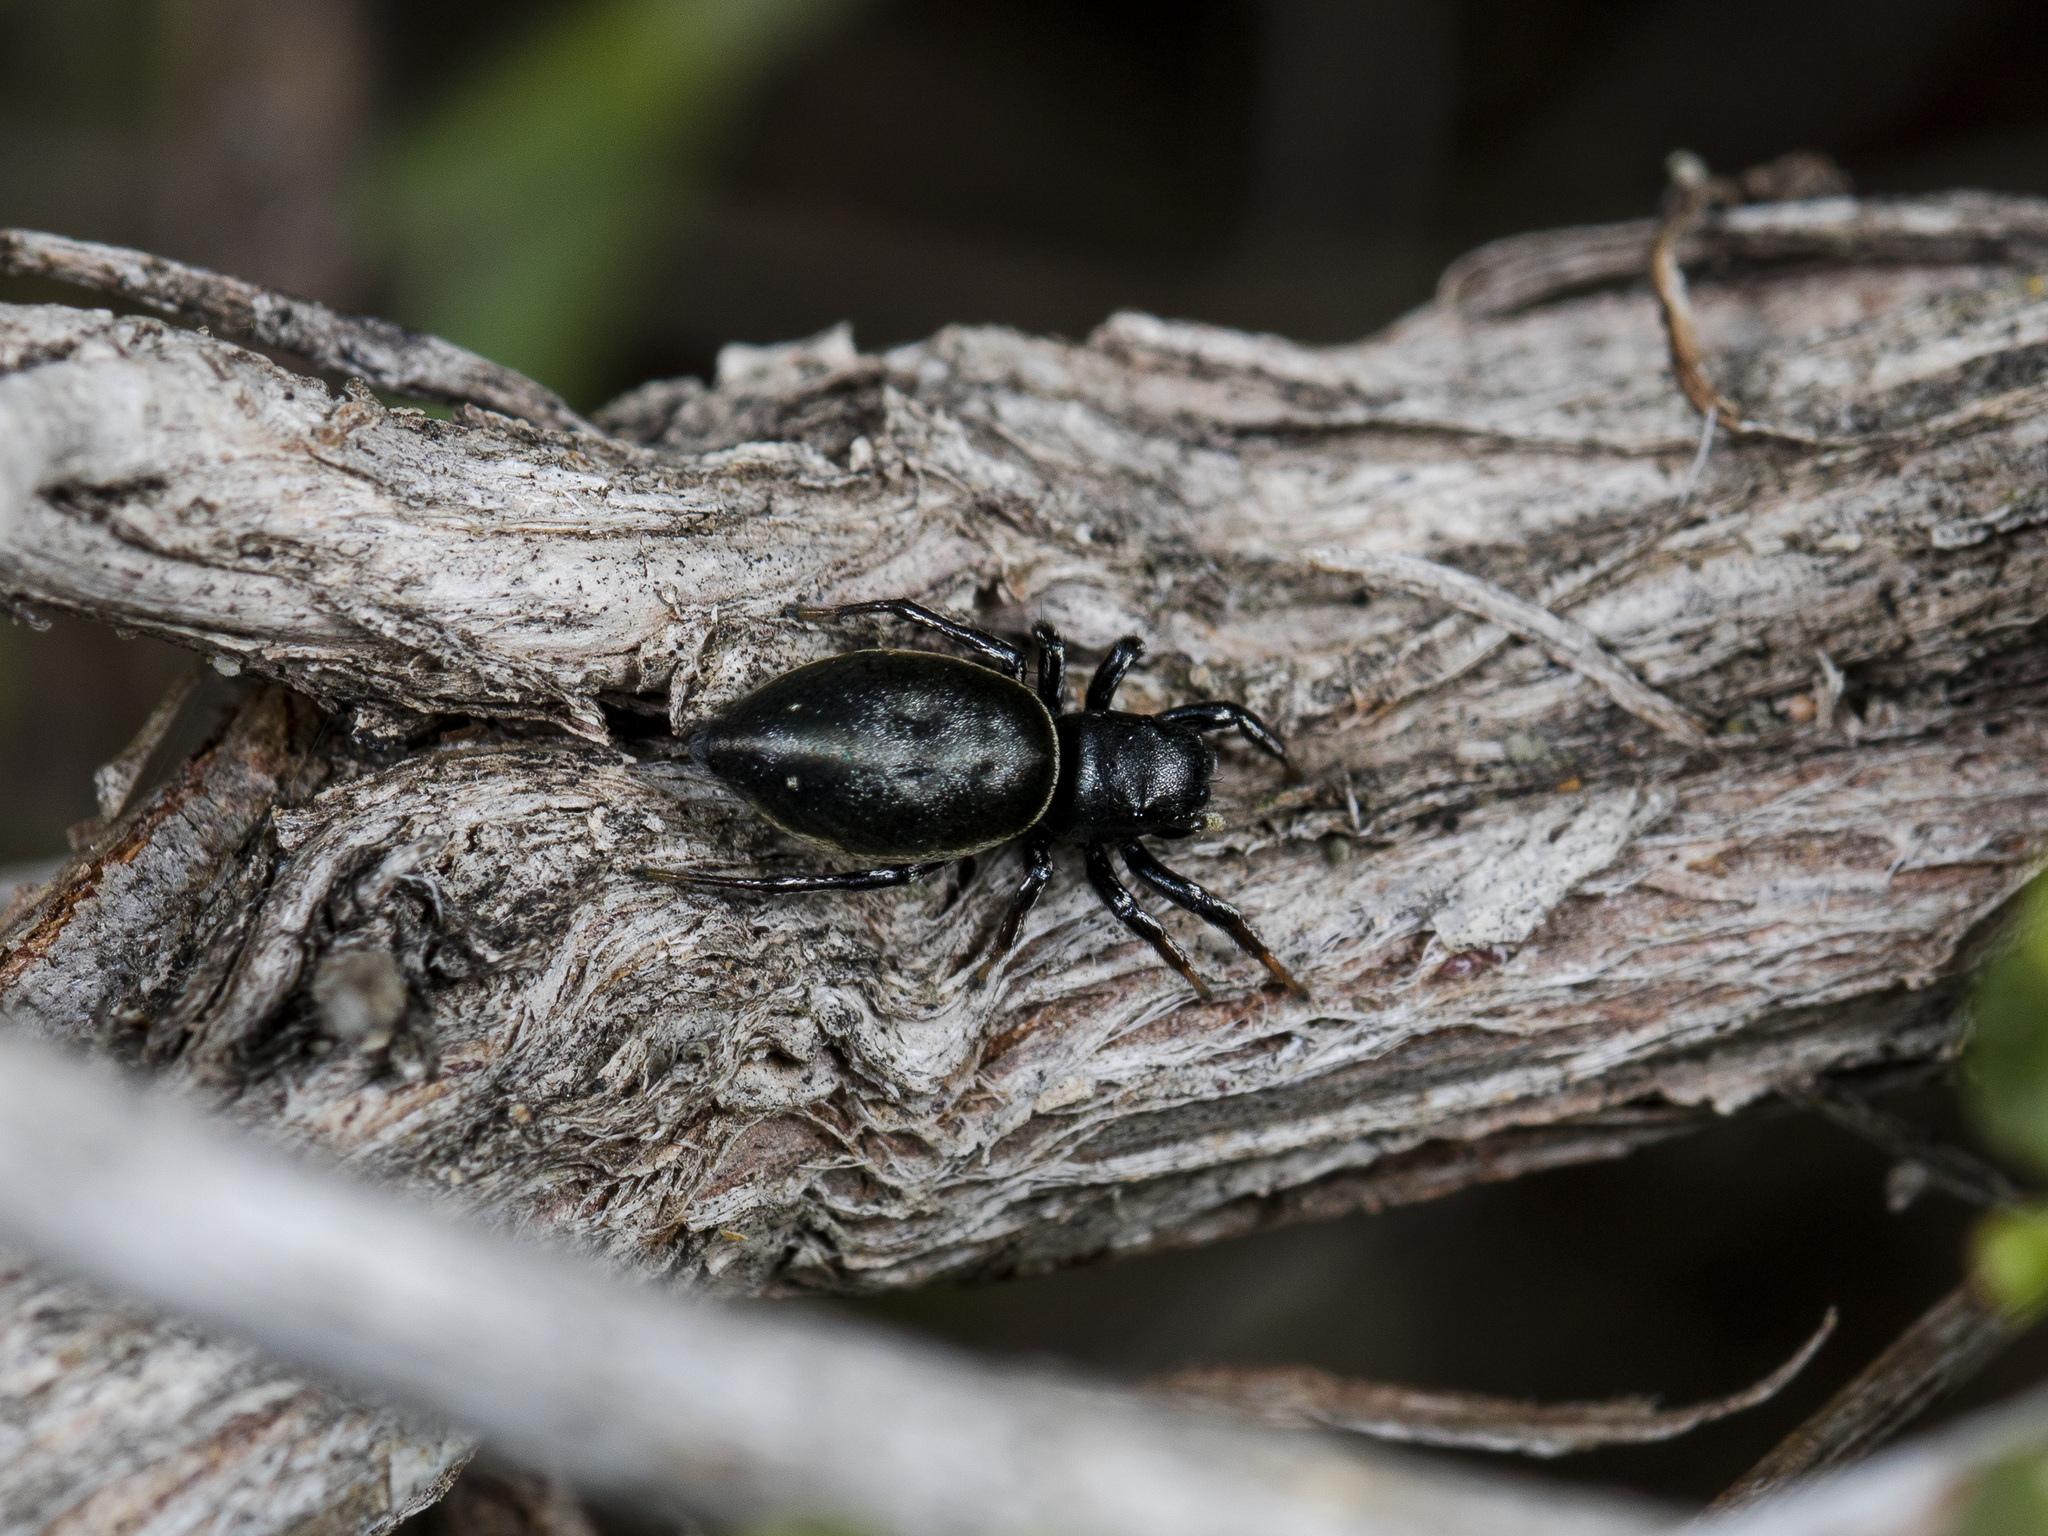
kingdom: Animalia
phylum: Arthropoda
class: Arachnida
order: Araneae
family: Salticidae
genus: Heliophanus
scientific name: Heliophanus chovdensis
